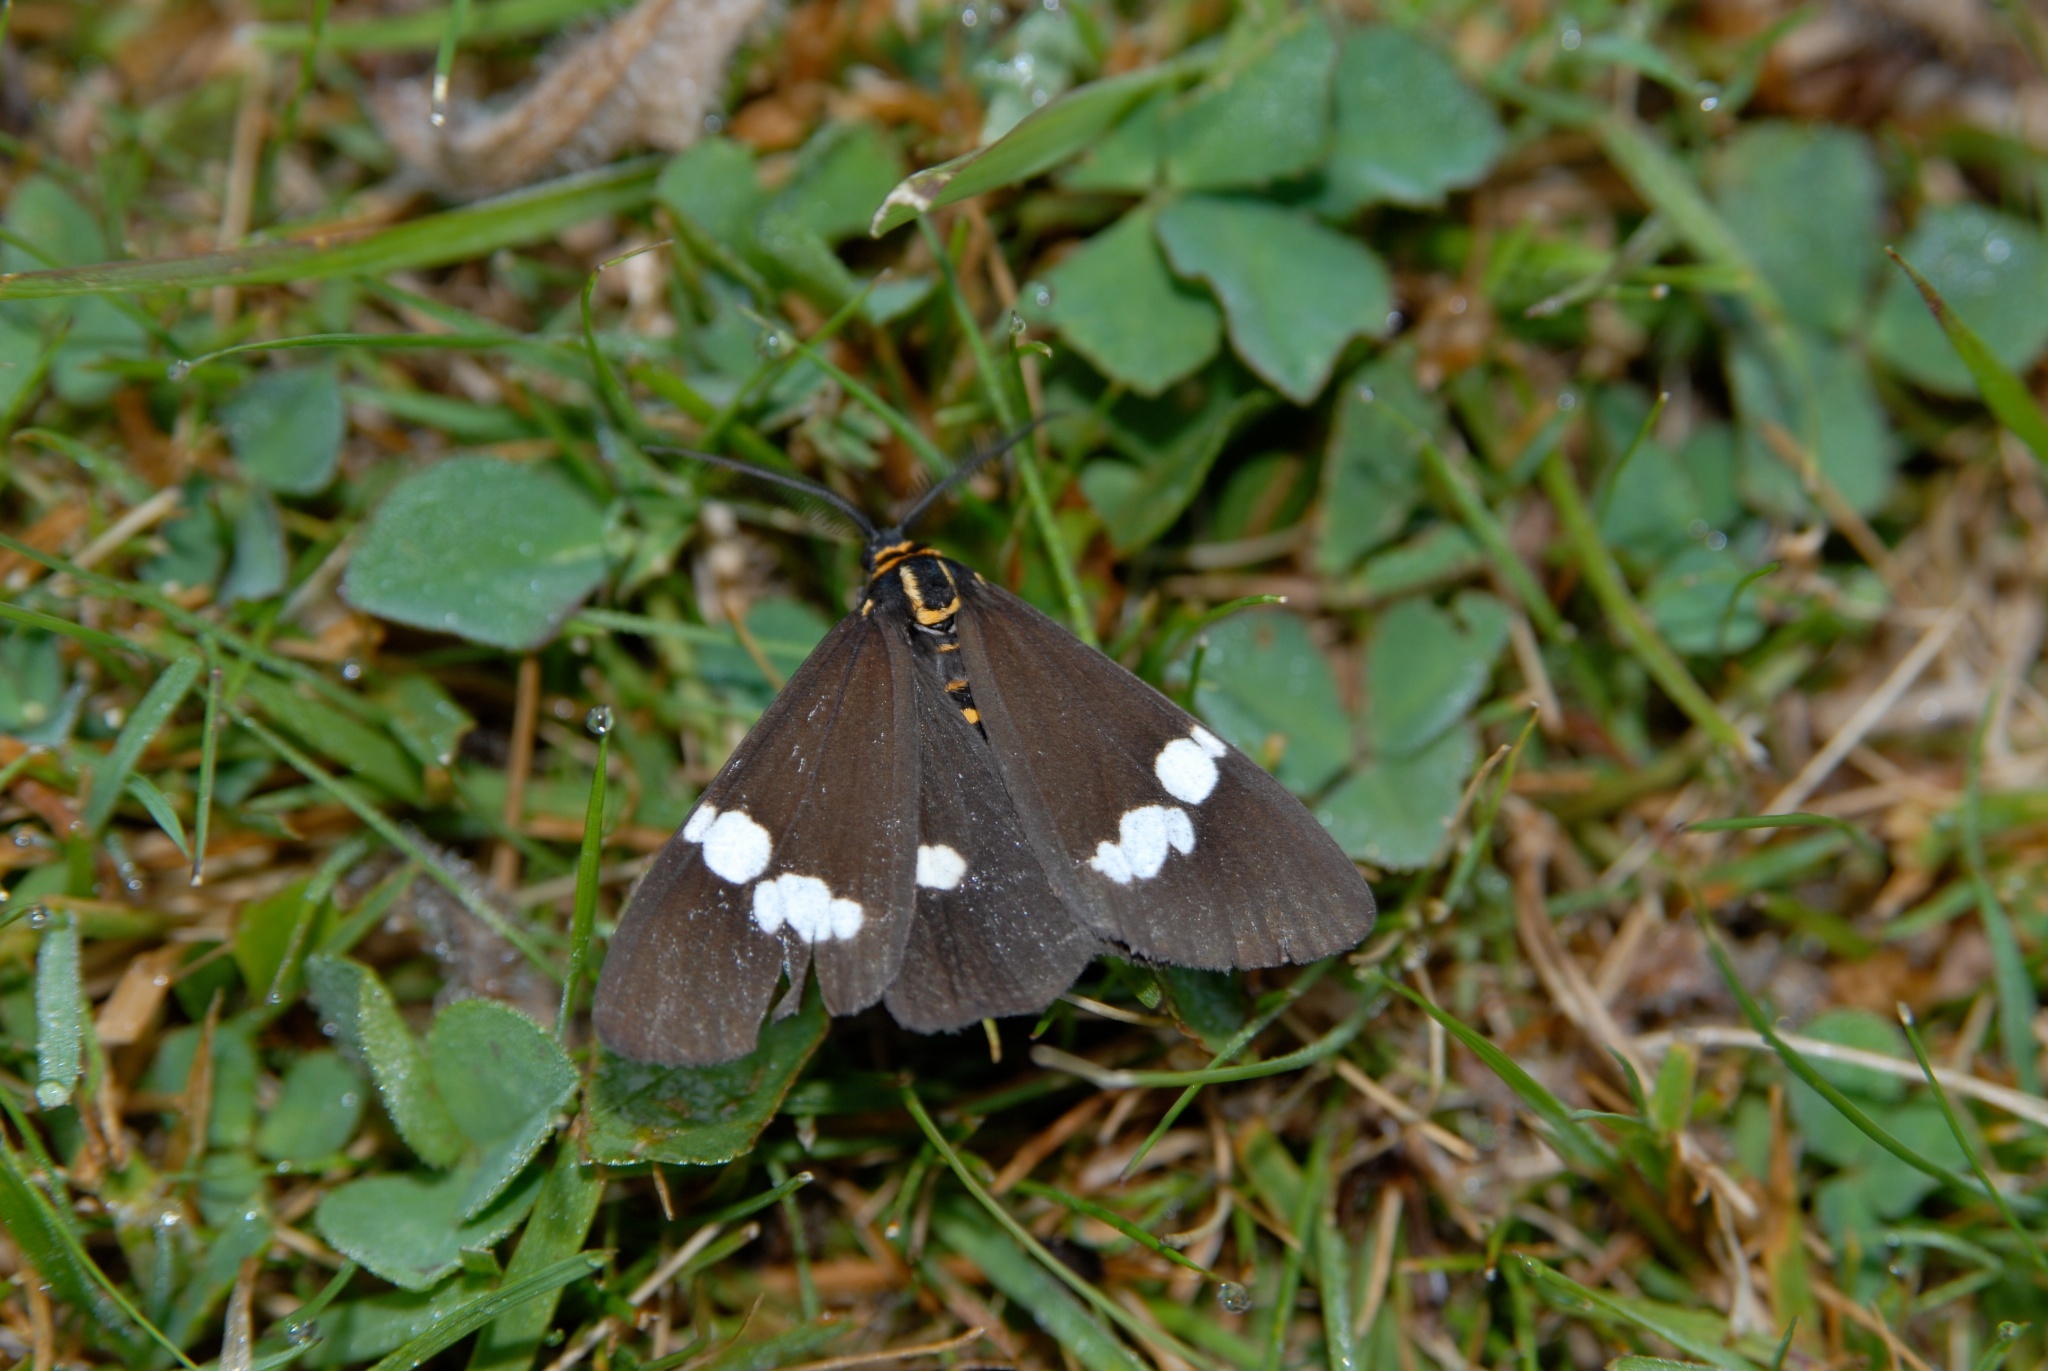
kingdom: Animalia
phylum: Arthropoda
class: Insecta
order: Lepidoptera
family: Erebidae
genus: Nyctemera
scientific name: Nyctemera annulatum
